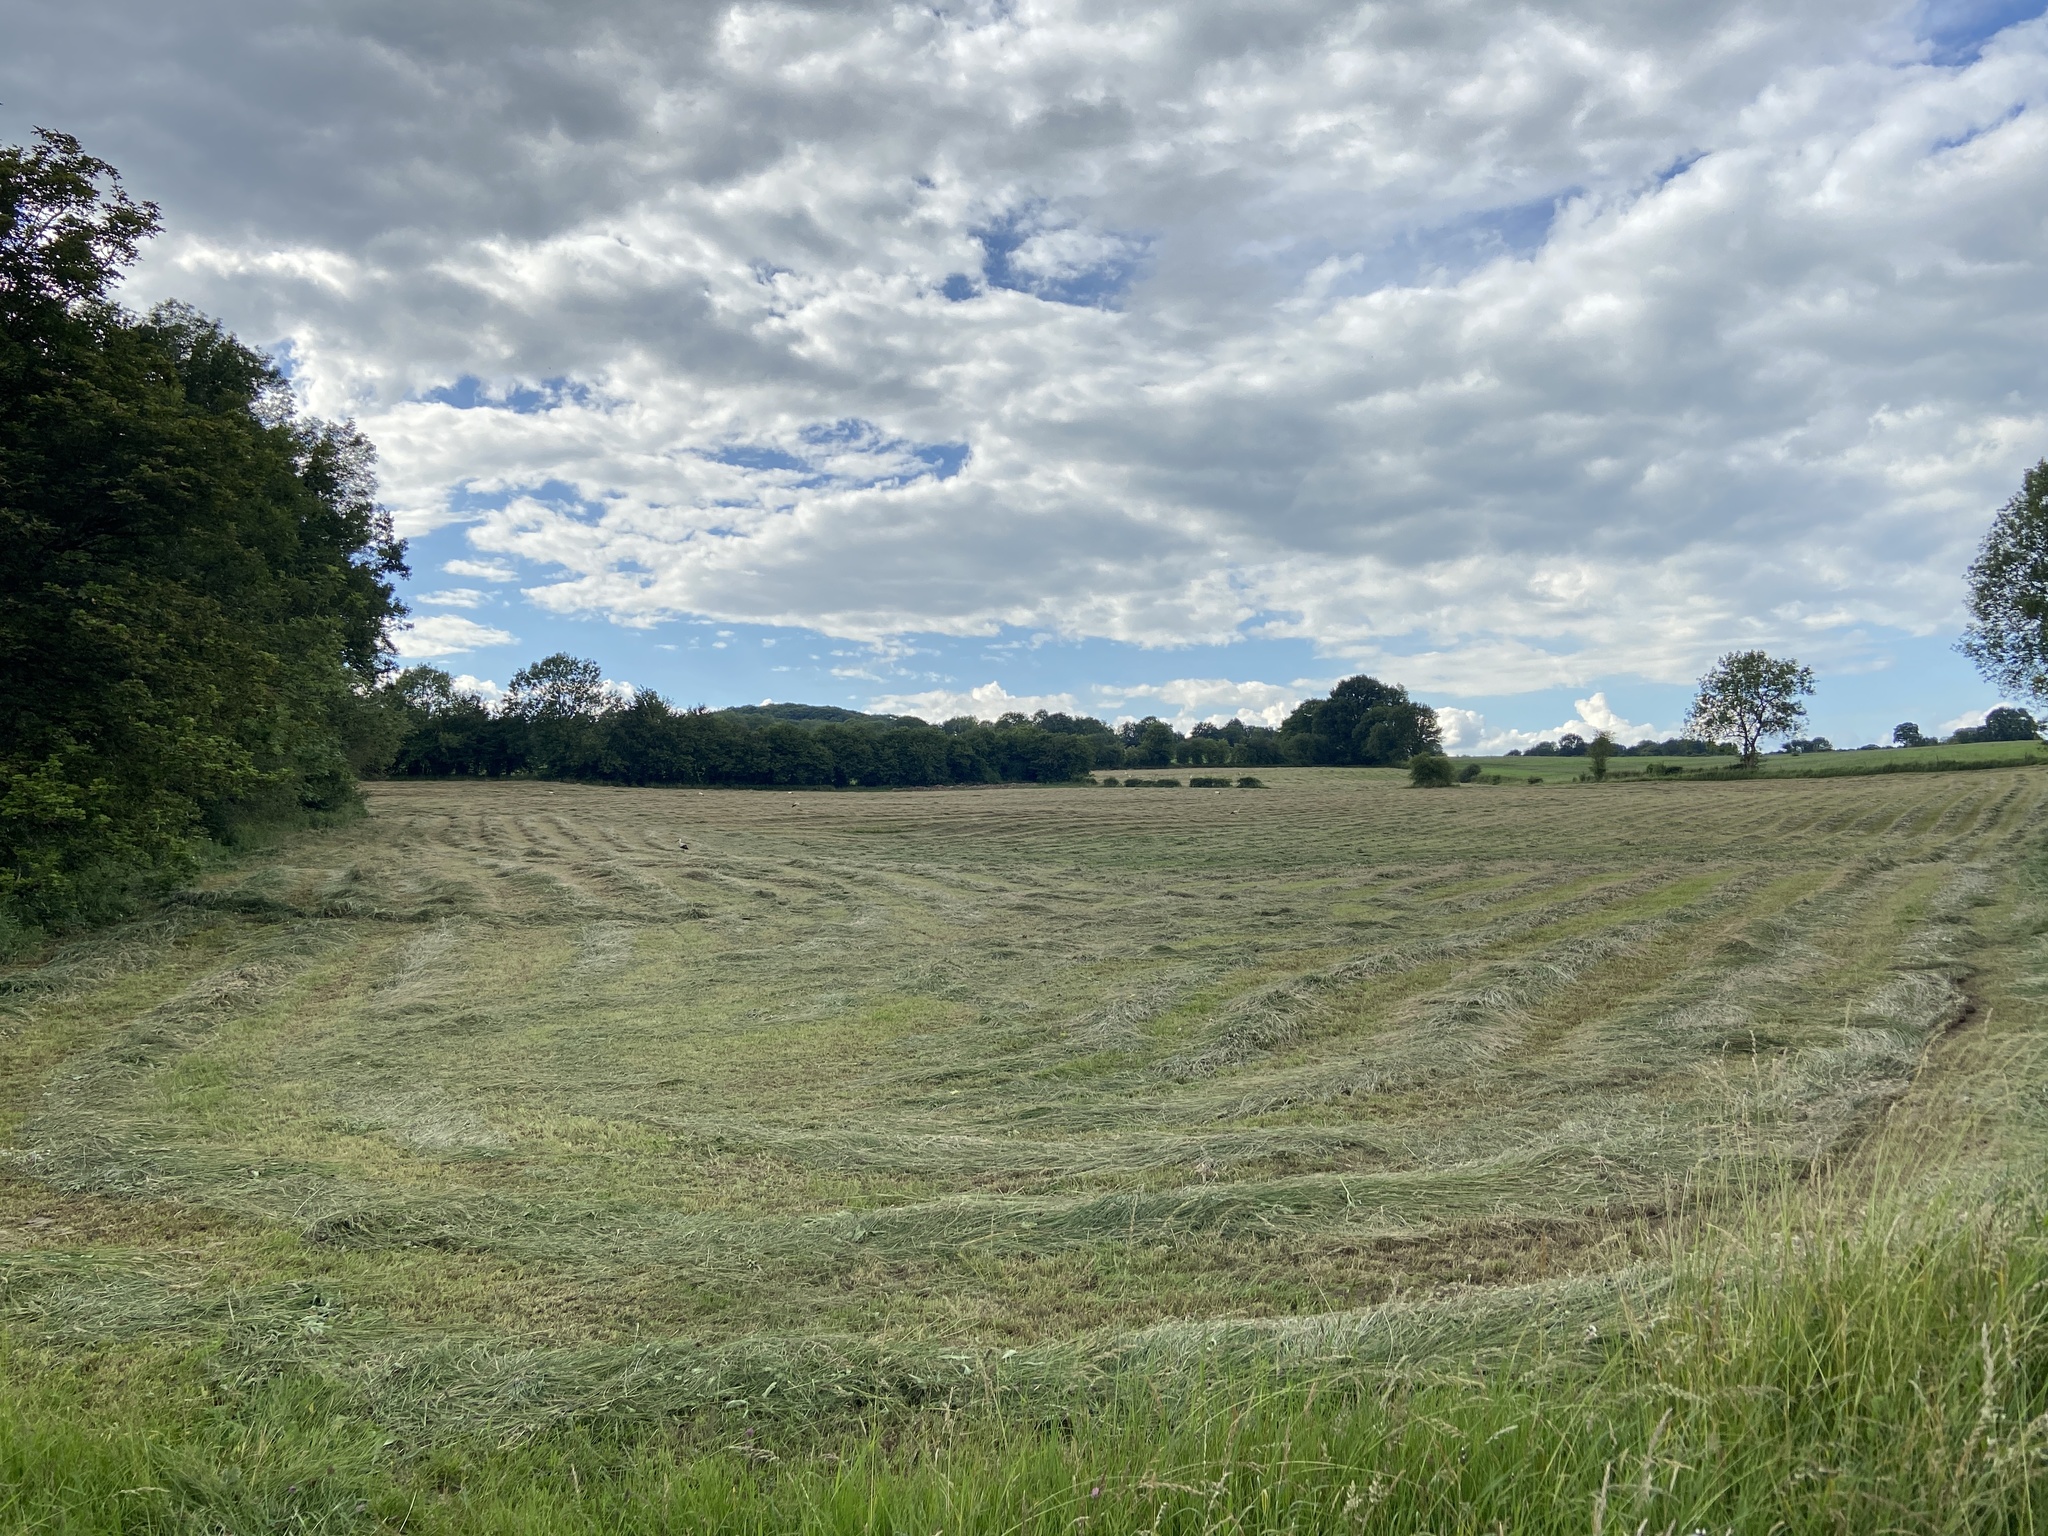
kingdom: Animalia
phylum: Chordata
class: Aves
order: Ciconiiformes
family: Ciconiidae
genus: Ciconia
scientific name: Ciconia ciconia
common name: White stork
